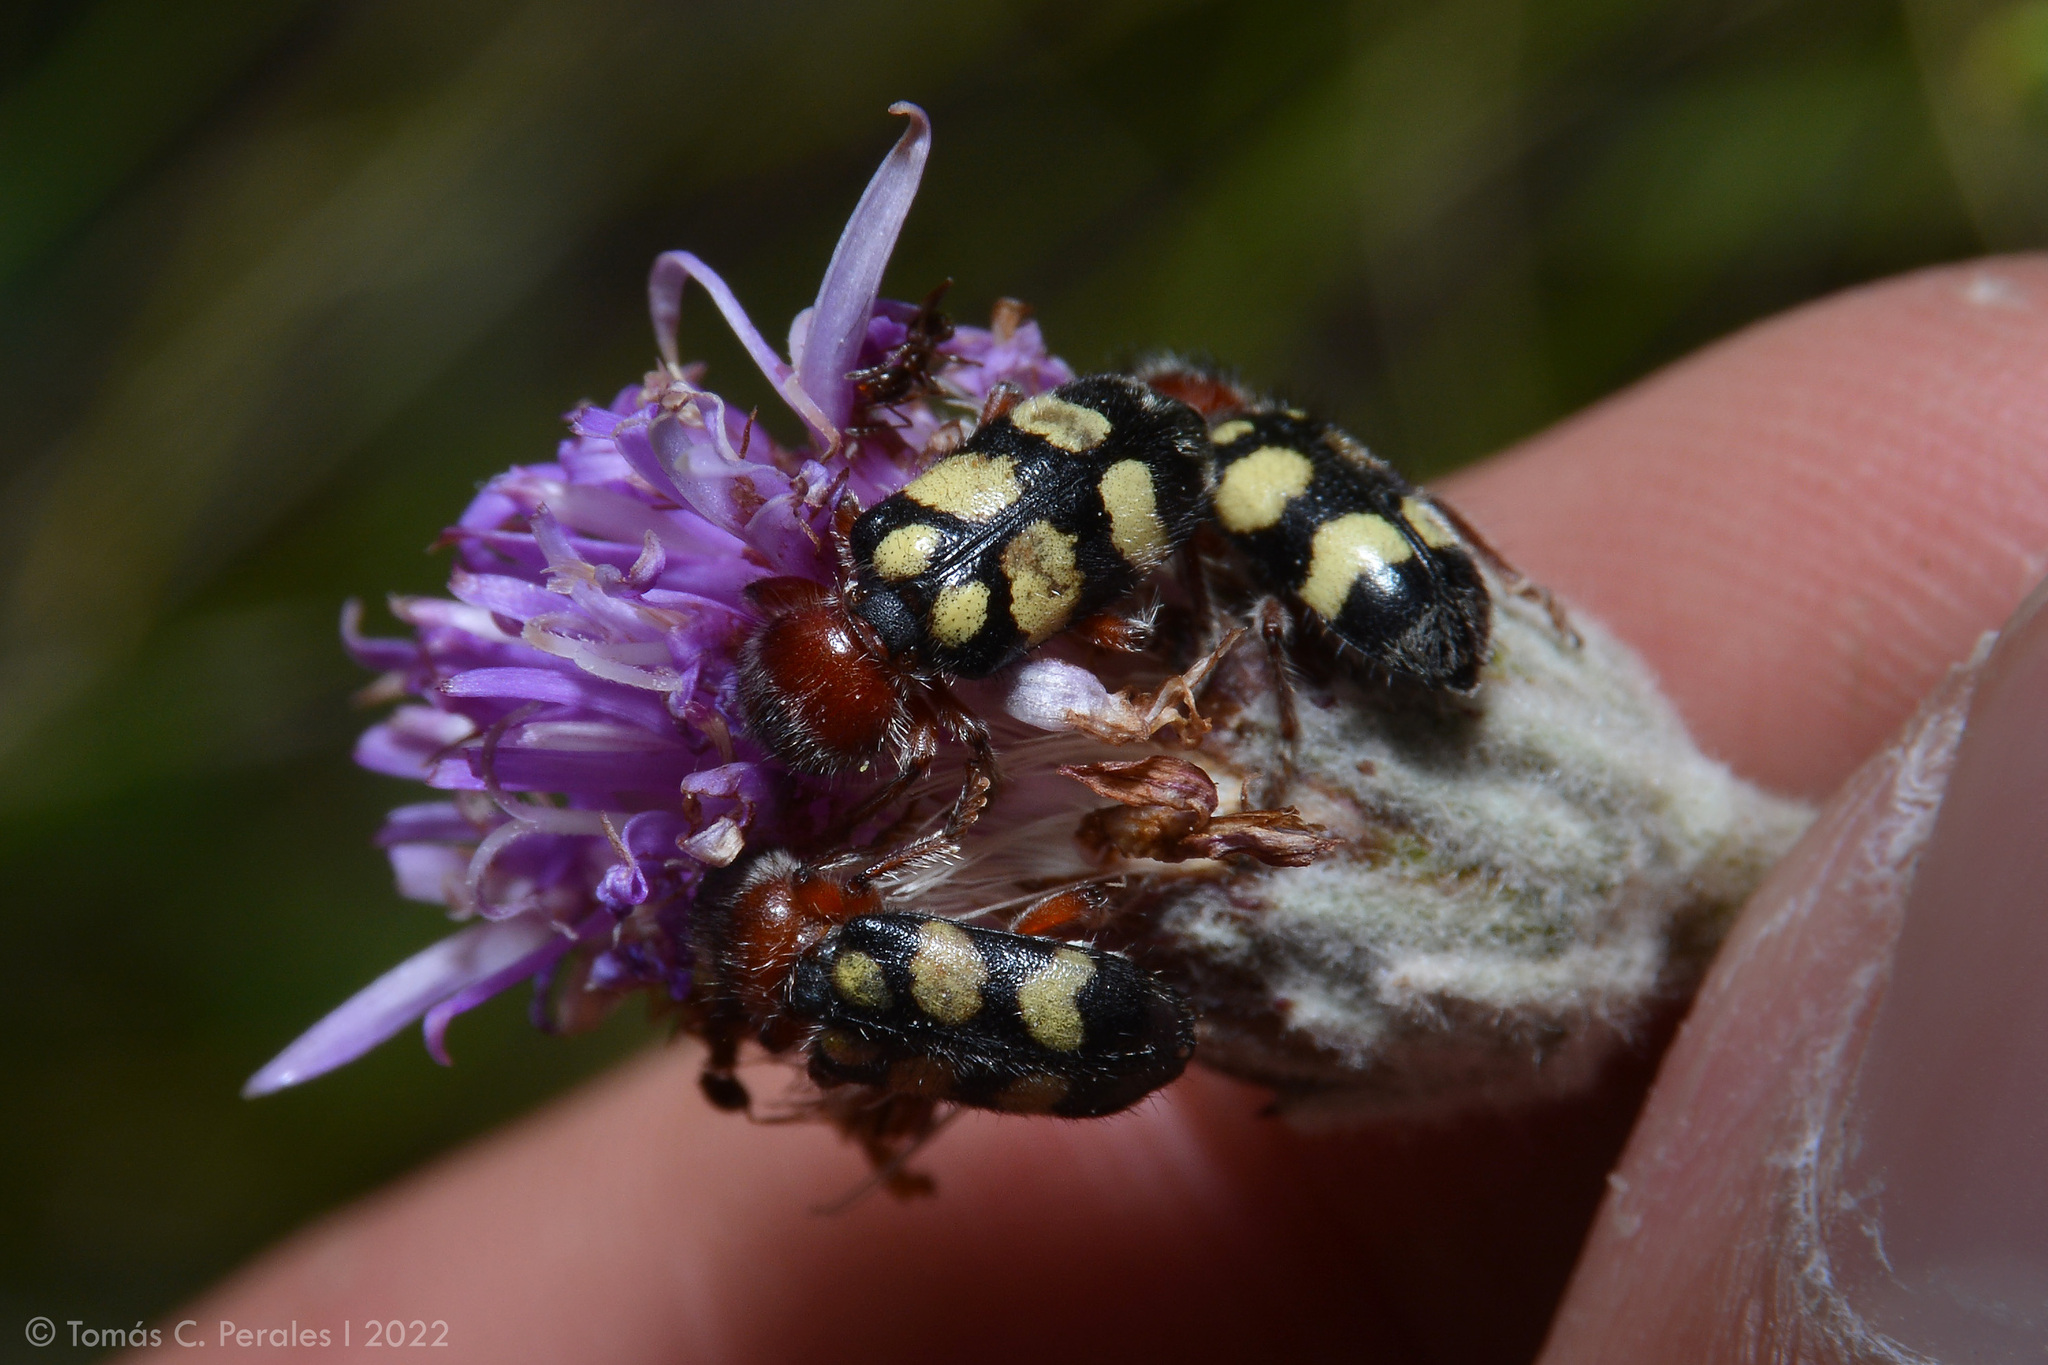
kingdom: Animalia
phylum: Arthropoda
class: Insecta
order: Coleoptera
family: Cleridae
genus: Enoclerus
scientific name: Enoclerus
